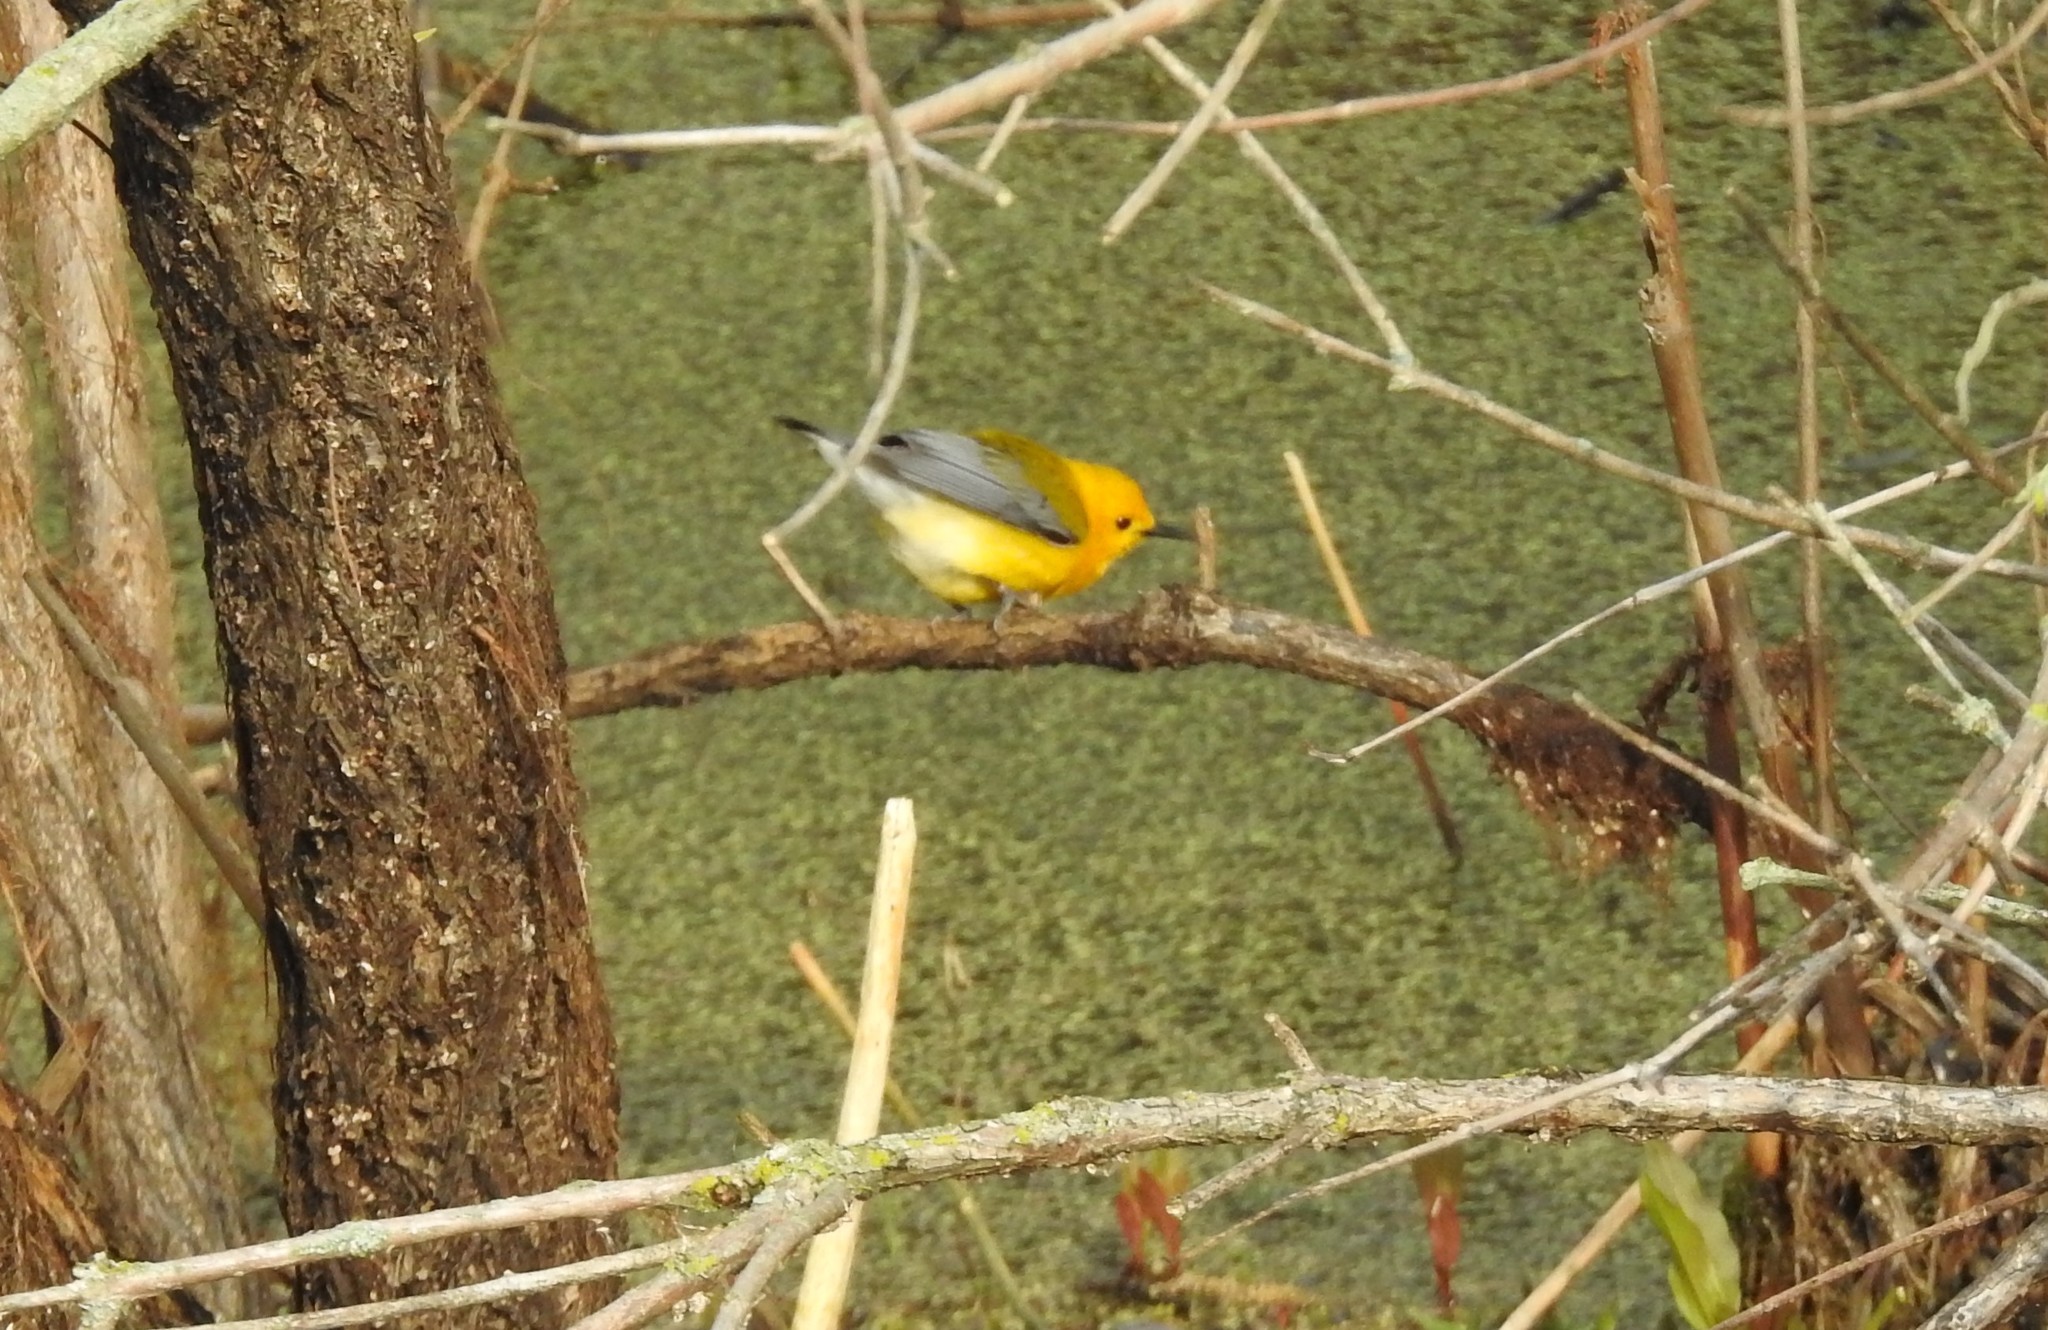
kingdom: Animalia
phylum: Chordata
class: Aves
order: Passeriformes
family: Parulidae
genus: Protonotaria
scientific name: Protonotaria citrea
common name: Prothonotary warbler
